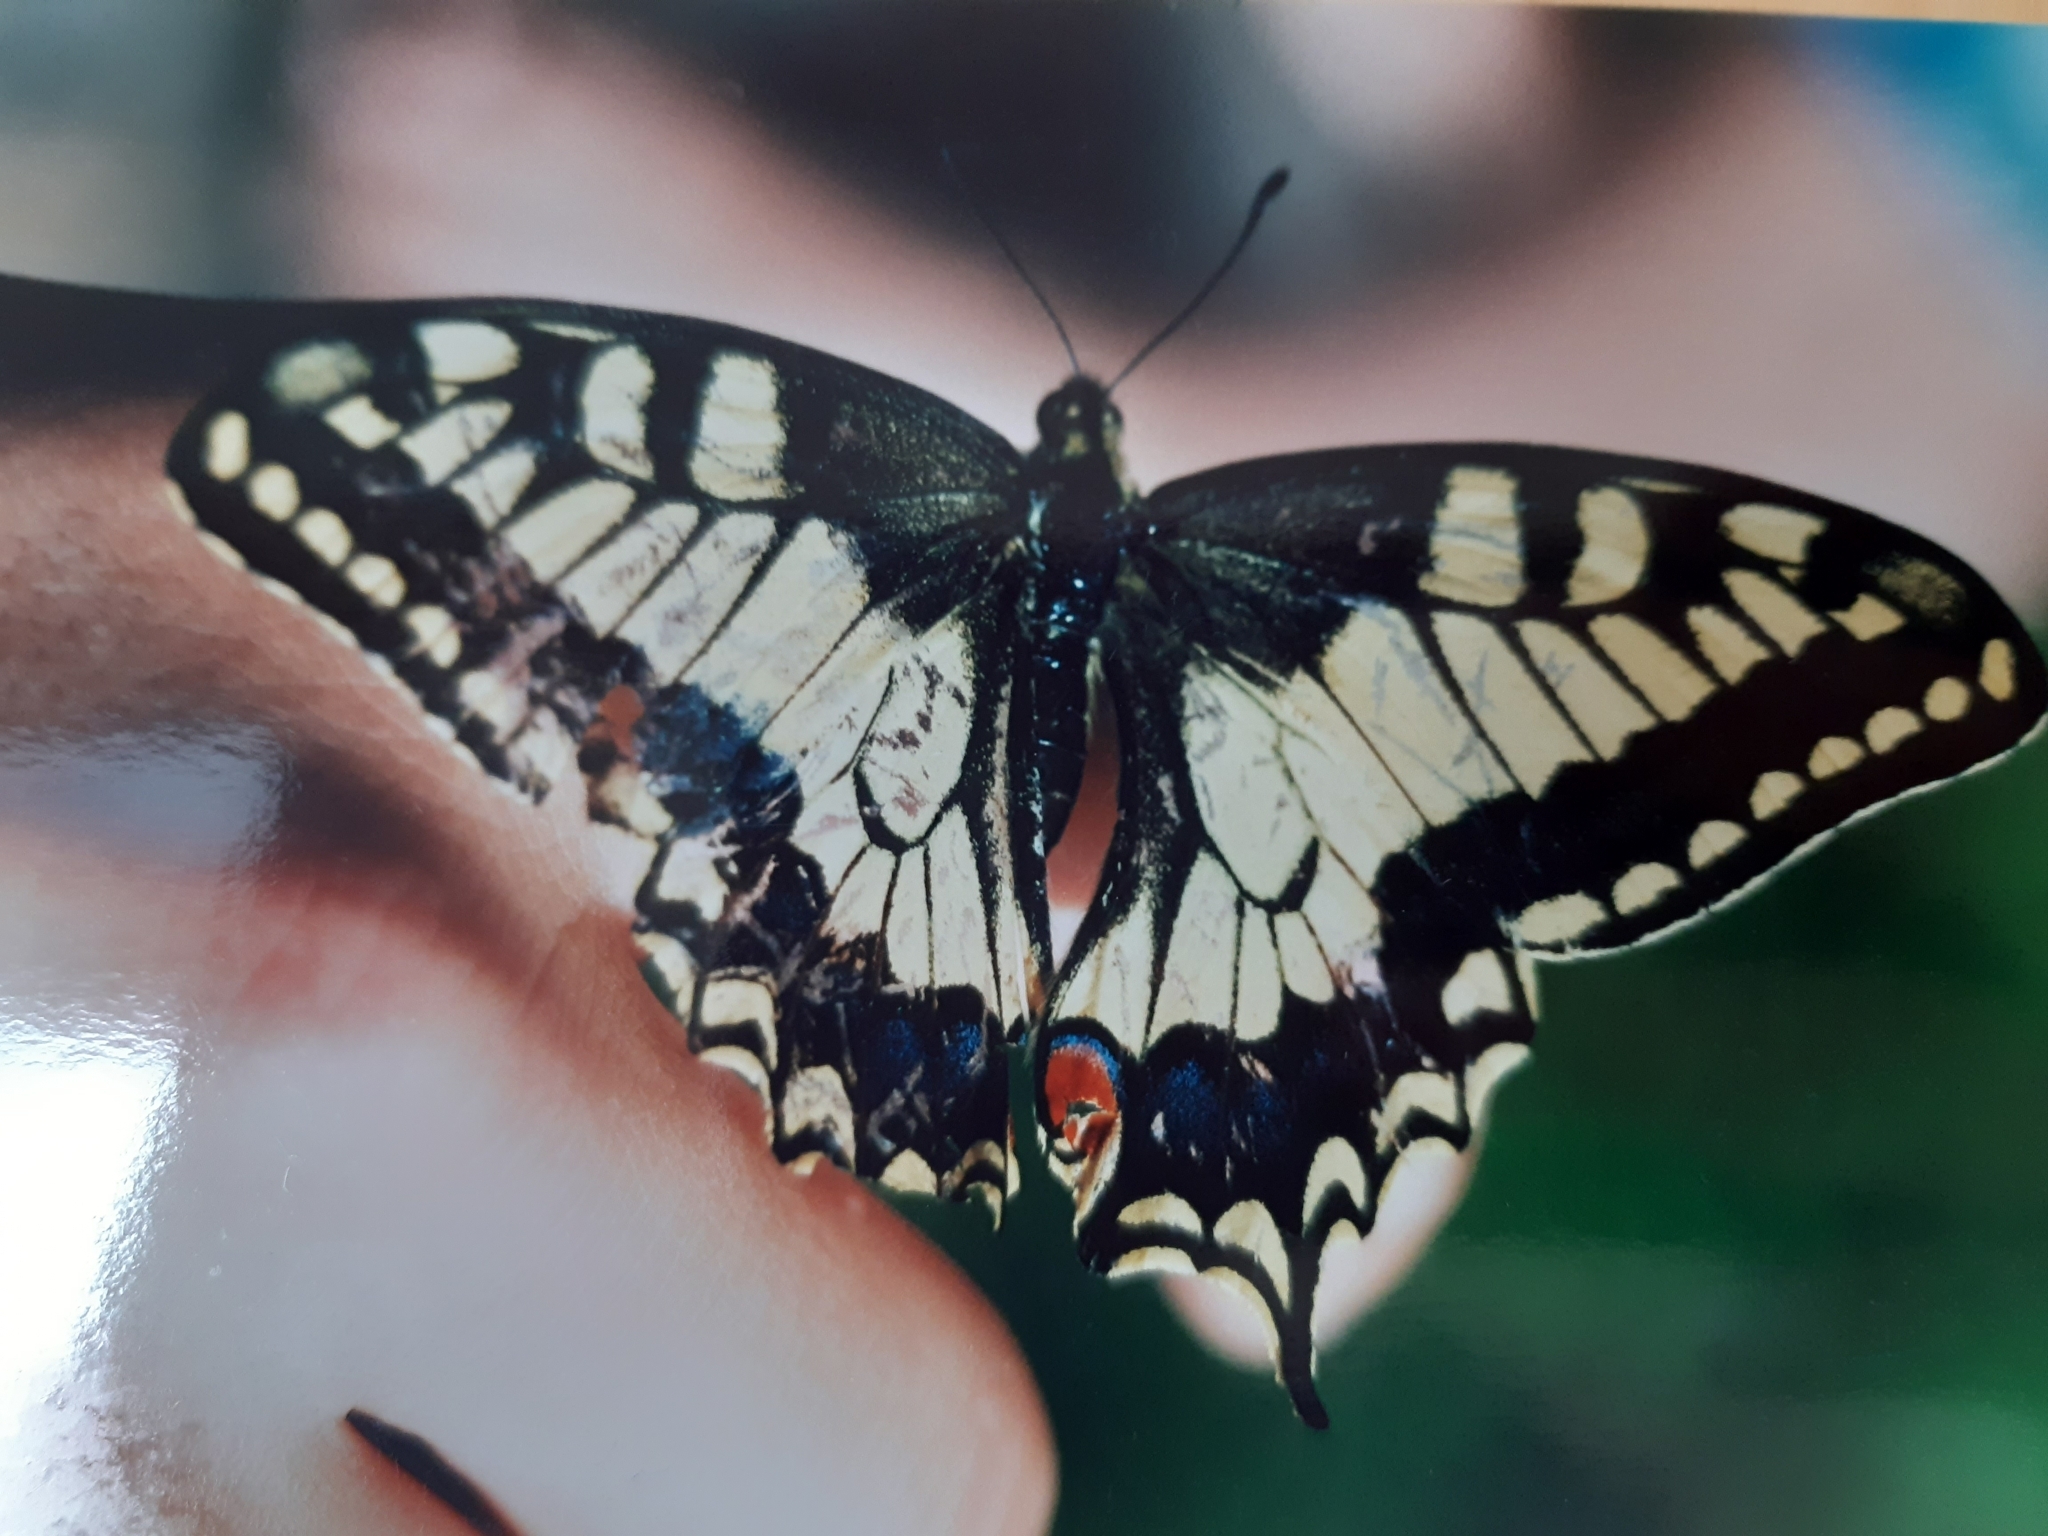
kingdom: Animalia
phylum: Arthropoda
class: Insecta
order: Lepidoptera
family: Papilionidae
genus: Papilio
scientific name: Papilio machaon
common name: Swallowtail
